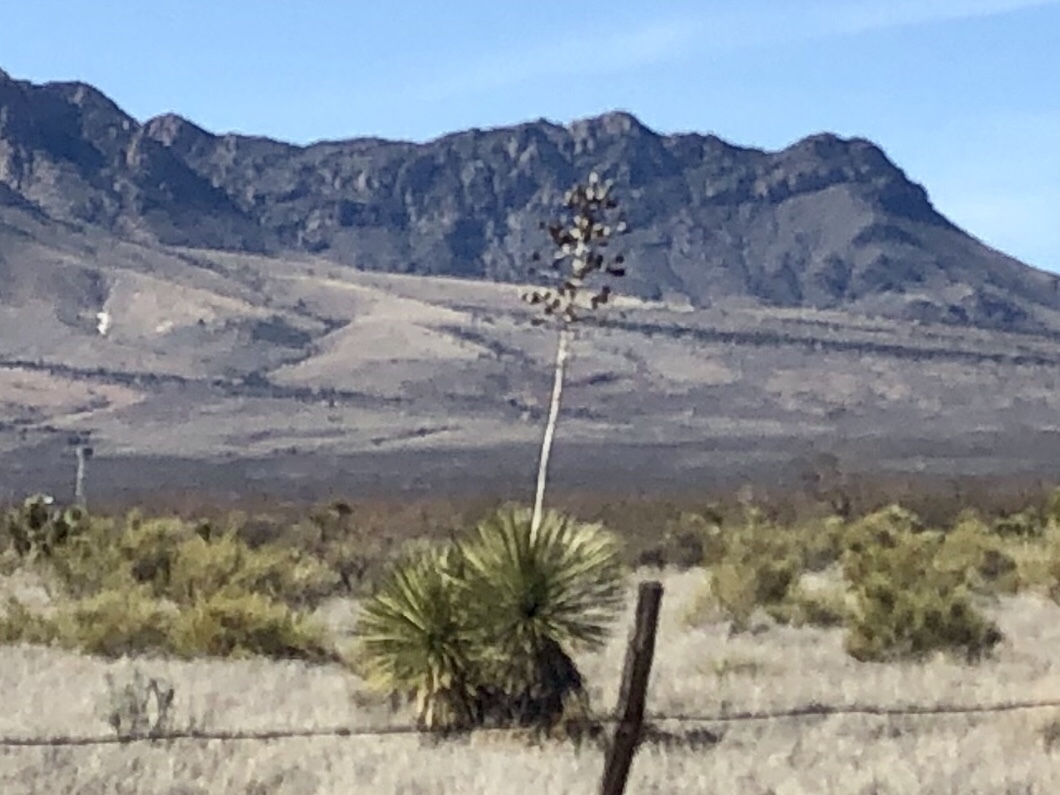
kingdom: Plantae
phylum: Tracheophyta
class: Liliopsida
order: Asparagales
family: Asparagaceae
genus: Yucca
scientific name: Yucca elata
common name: Palmella
